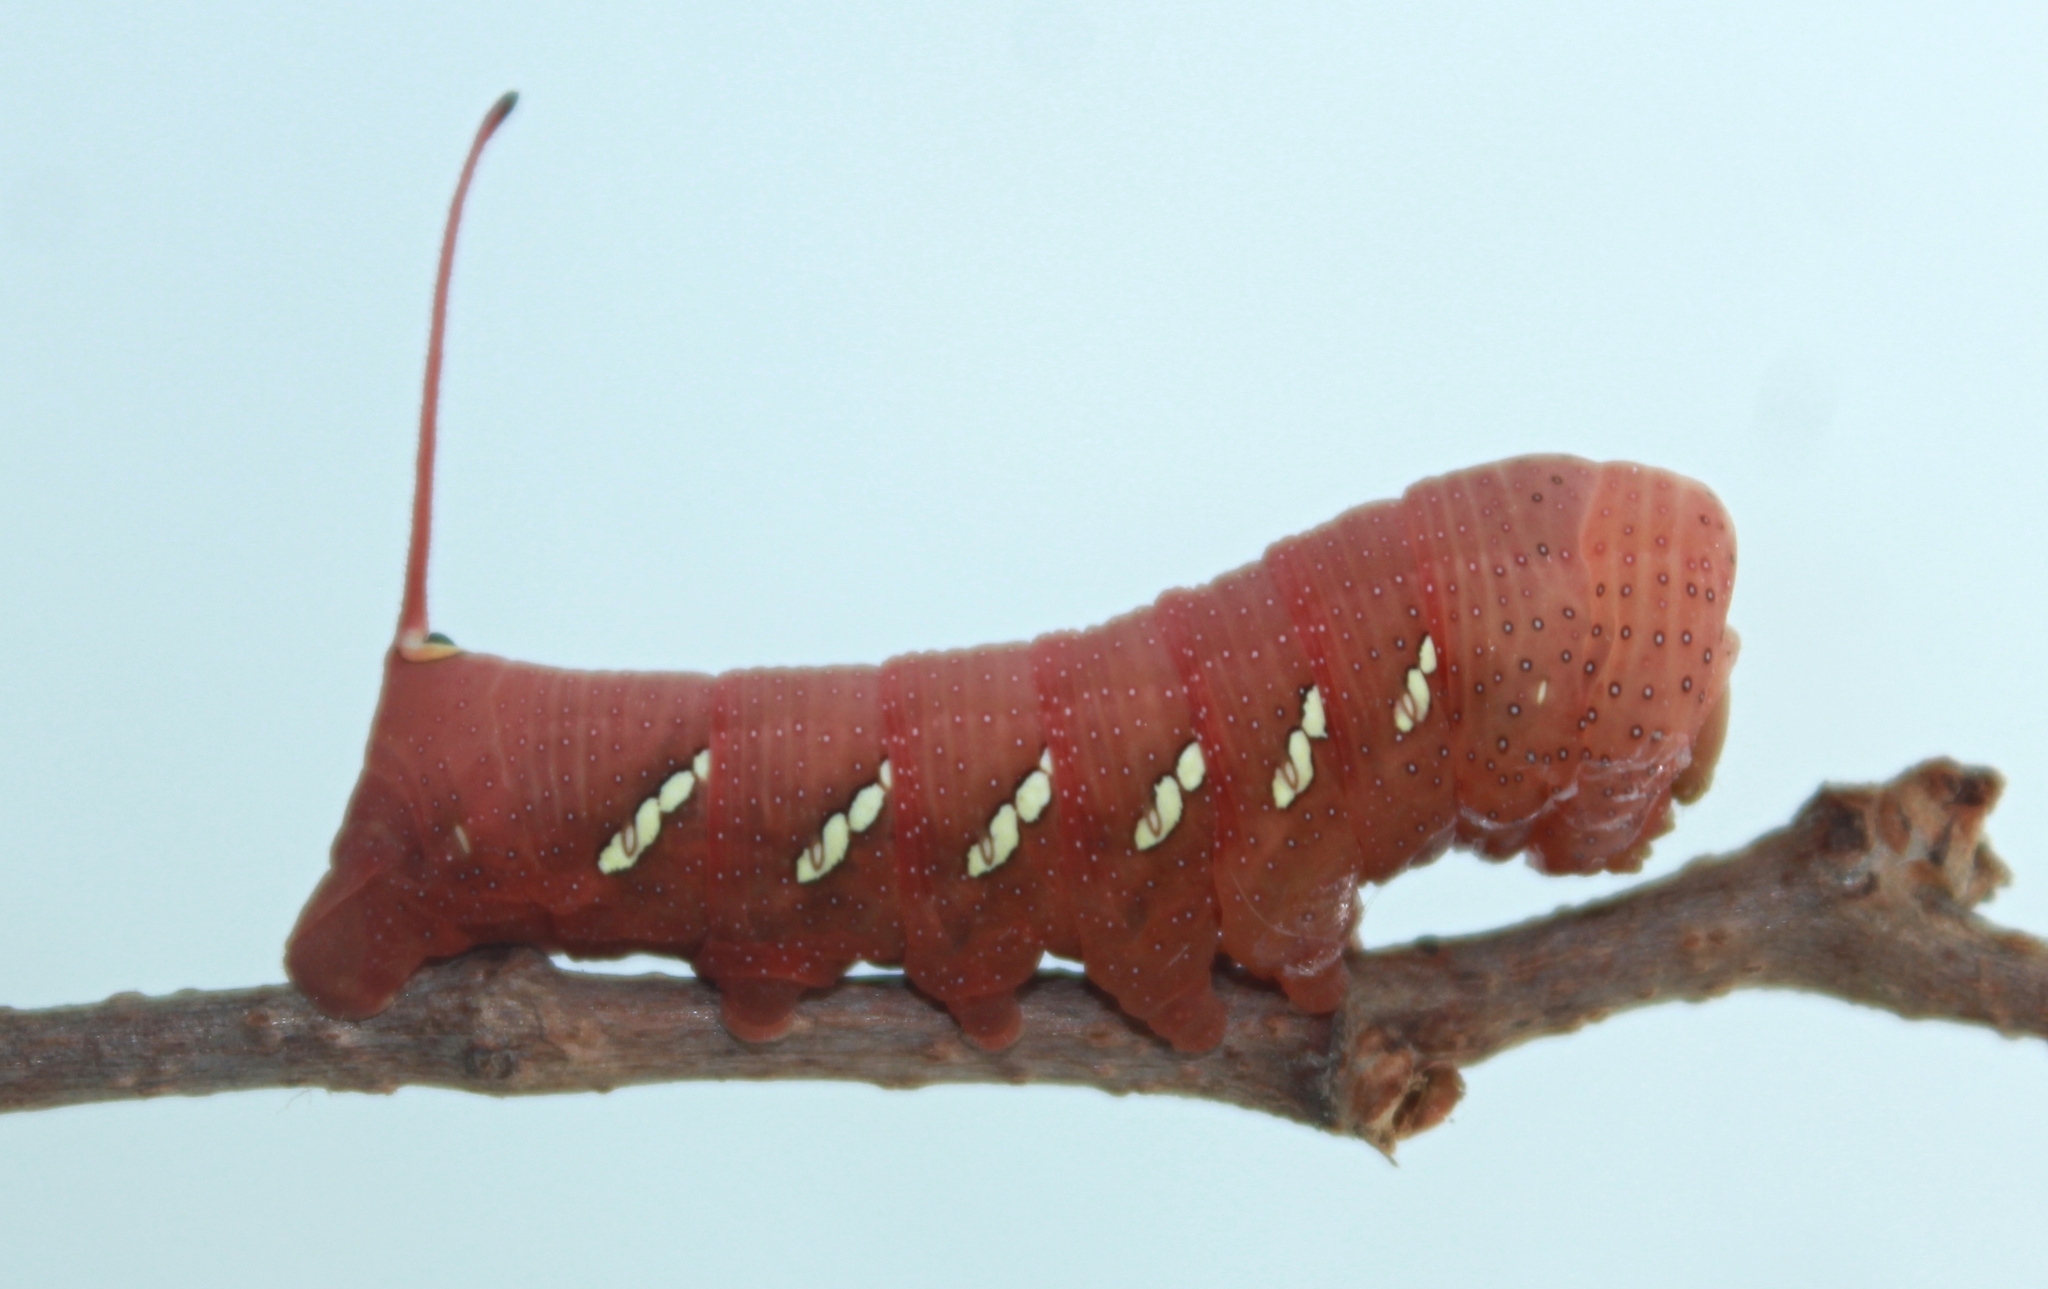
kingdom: Animalia
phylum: Arthropoda
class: Insecta
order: Lepidoptera
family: Sphingidae
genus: Eumorpha
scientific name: Eumorpha achemon
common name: Achemon sphinx
